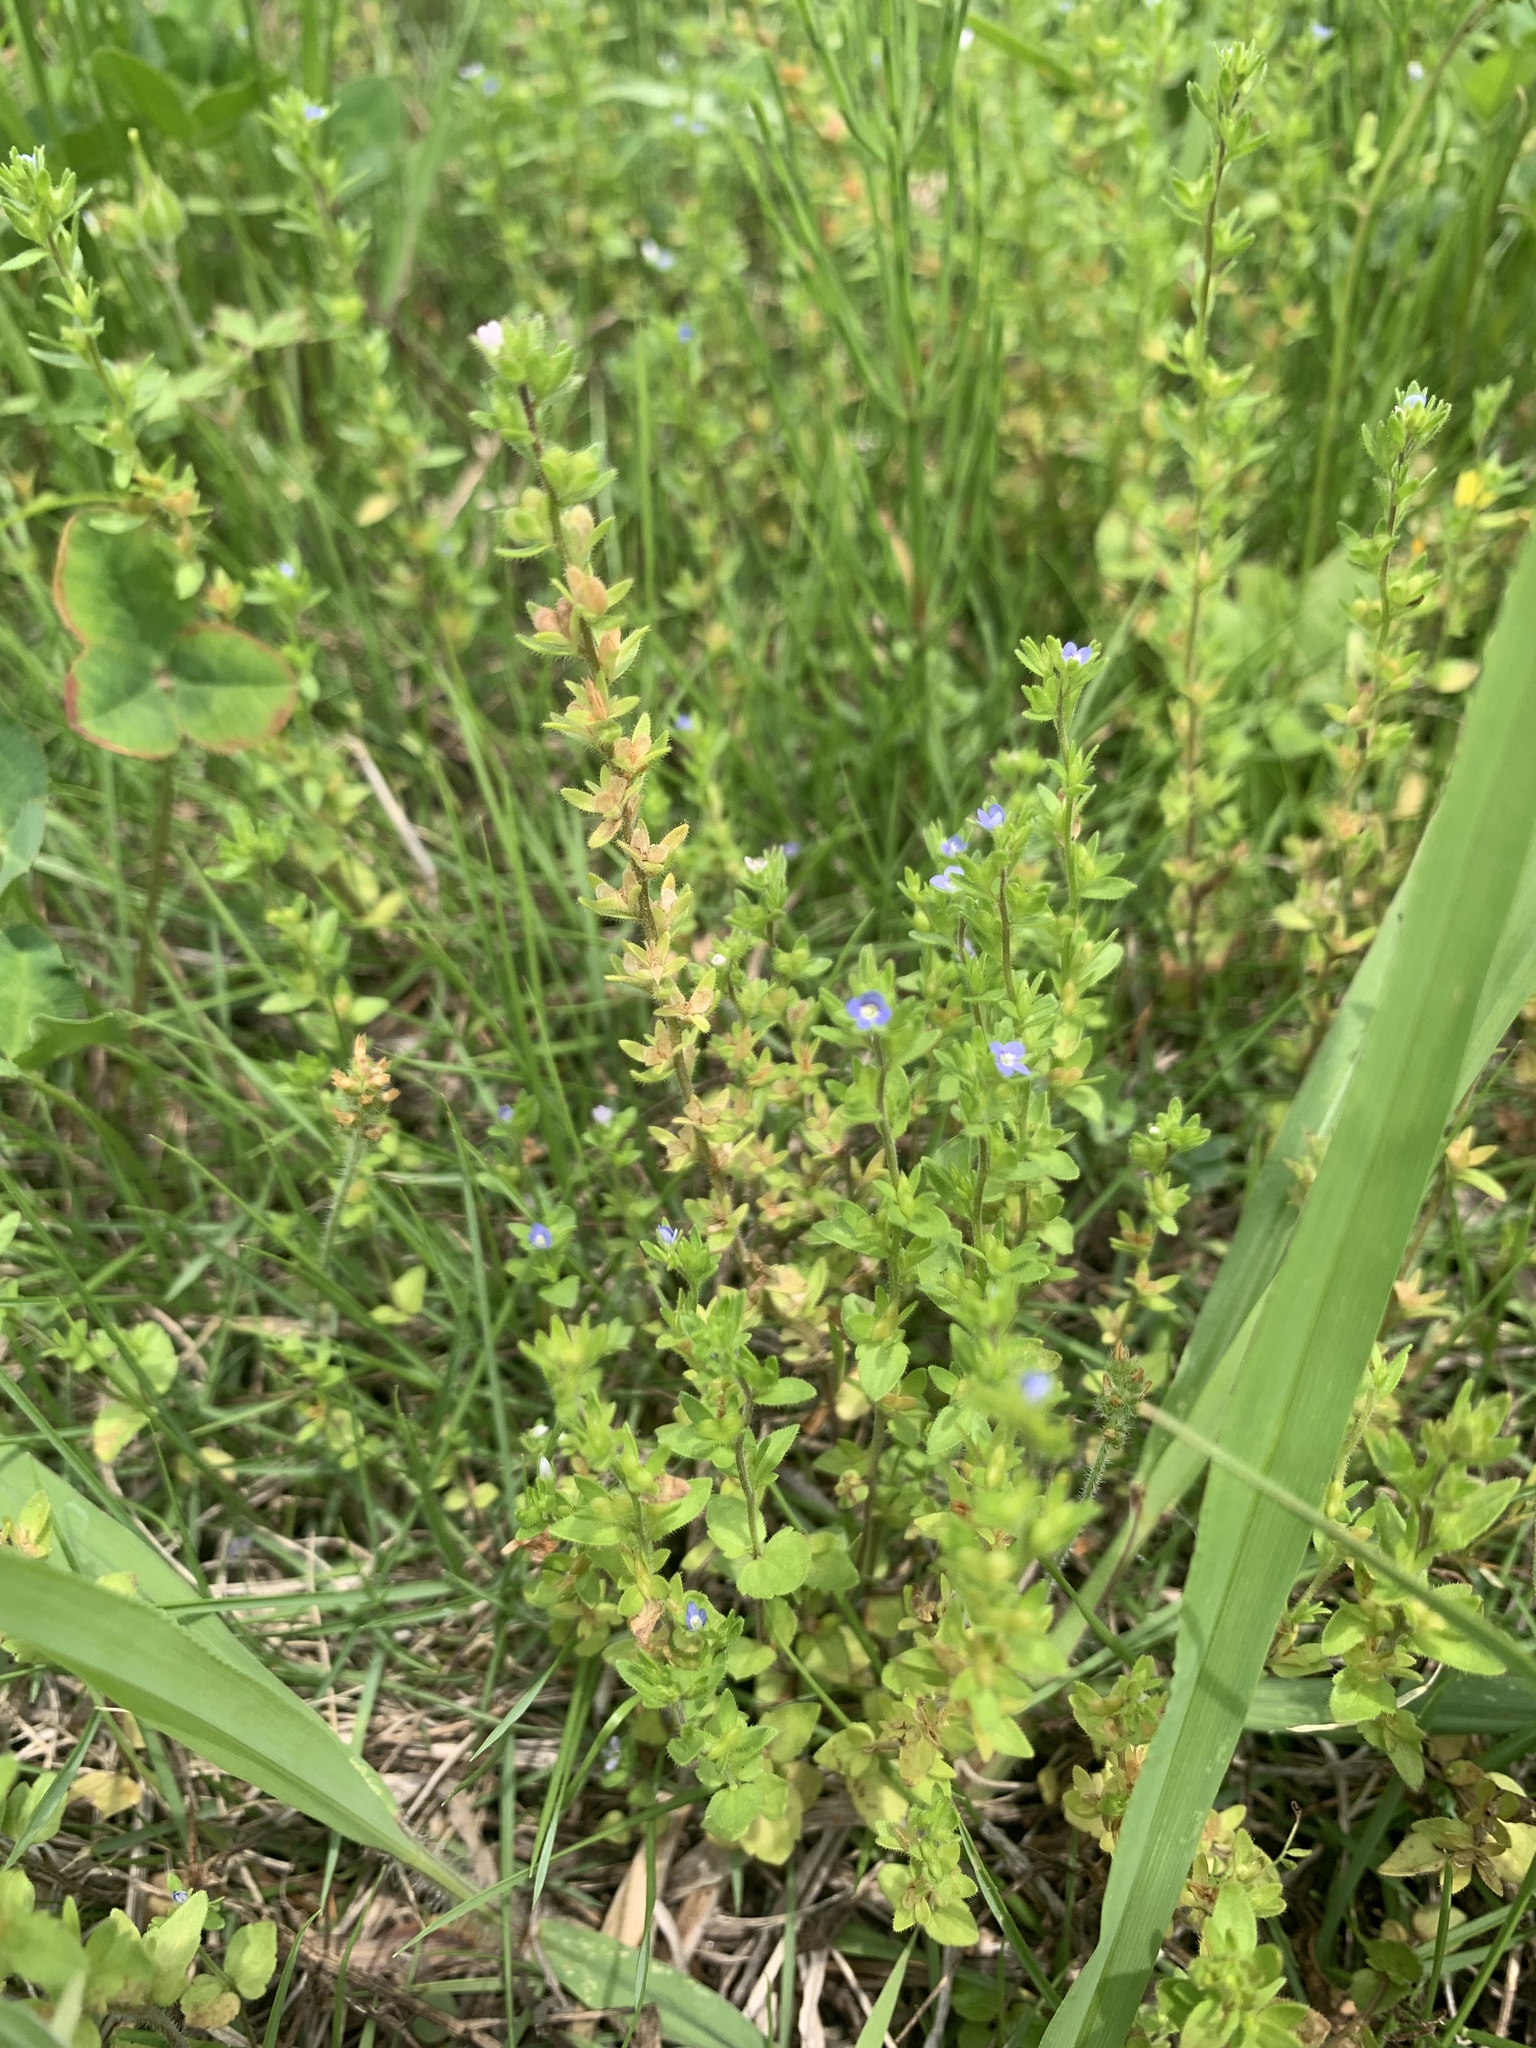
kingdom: Plantae
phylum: Tracheophyta
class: Magnoliopsida
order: Lamiales
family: Plantaginaceae
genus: Veronica
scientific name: Veronica arvensis
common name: Corn speedwell
